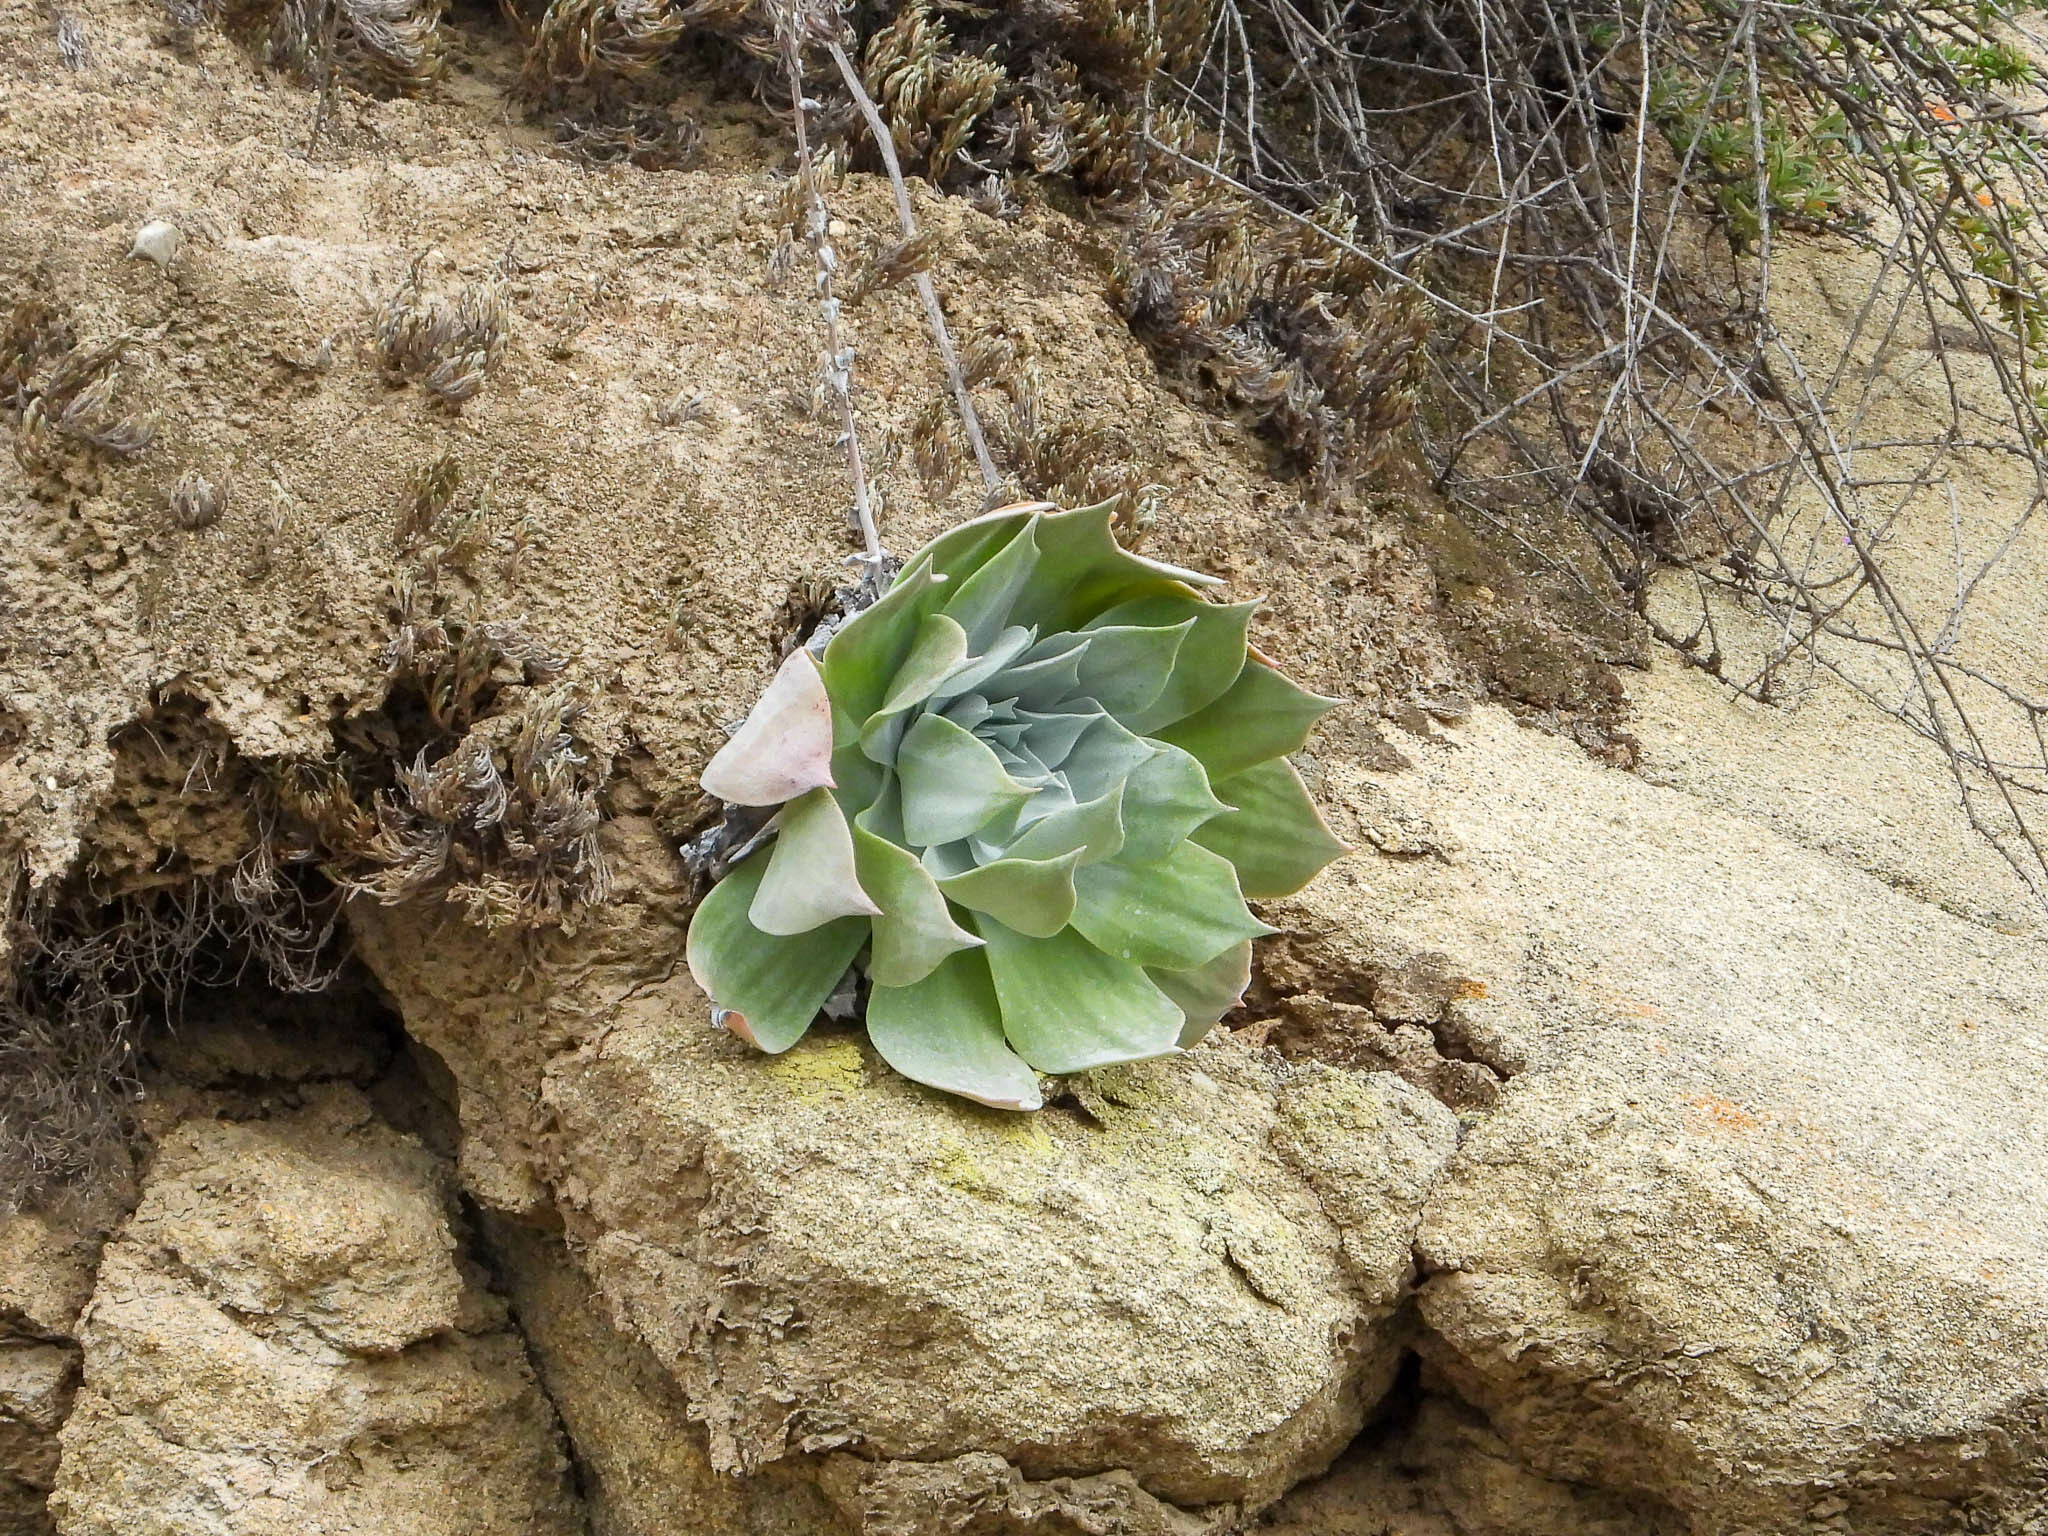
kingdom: Plantae
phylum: Tracheophyta
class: Magnoliopsida
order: Saxifragales
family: Crassulaceae
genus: Dudleya
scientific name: Dudleya pulverulenta
